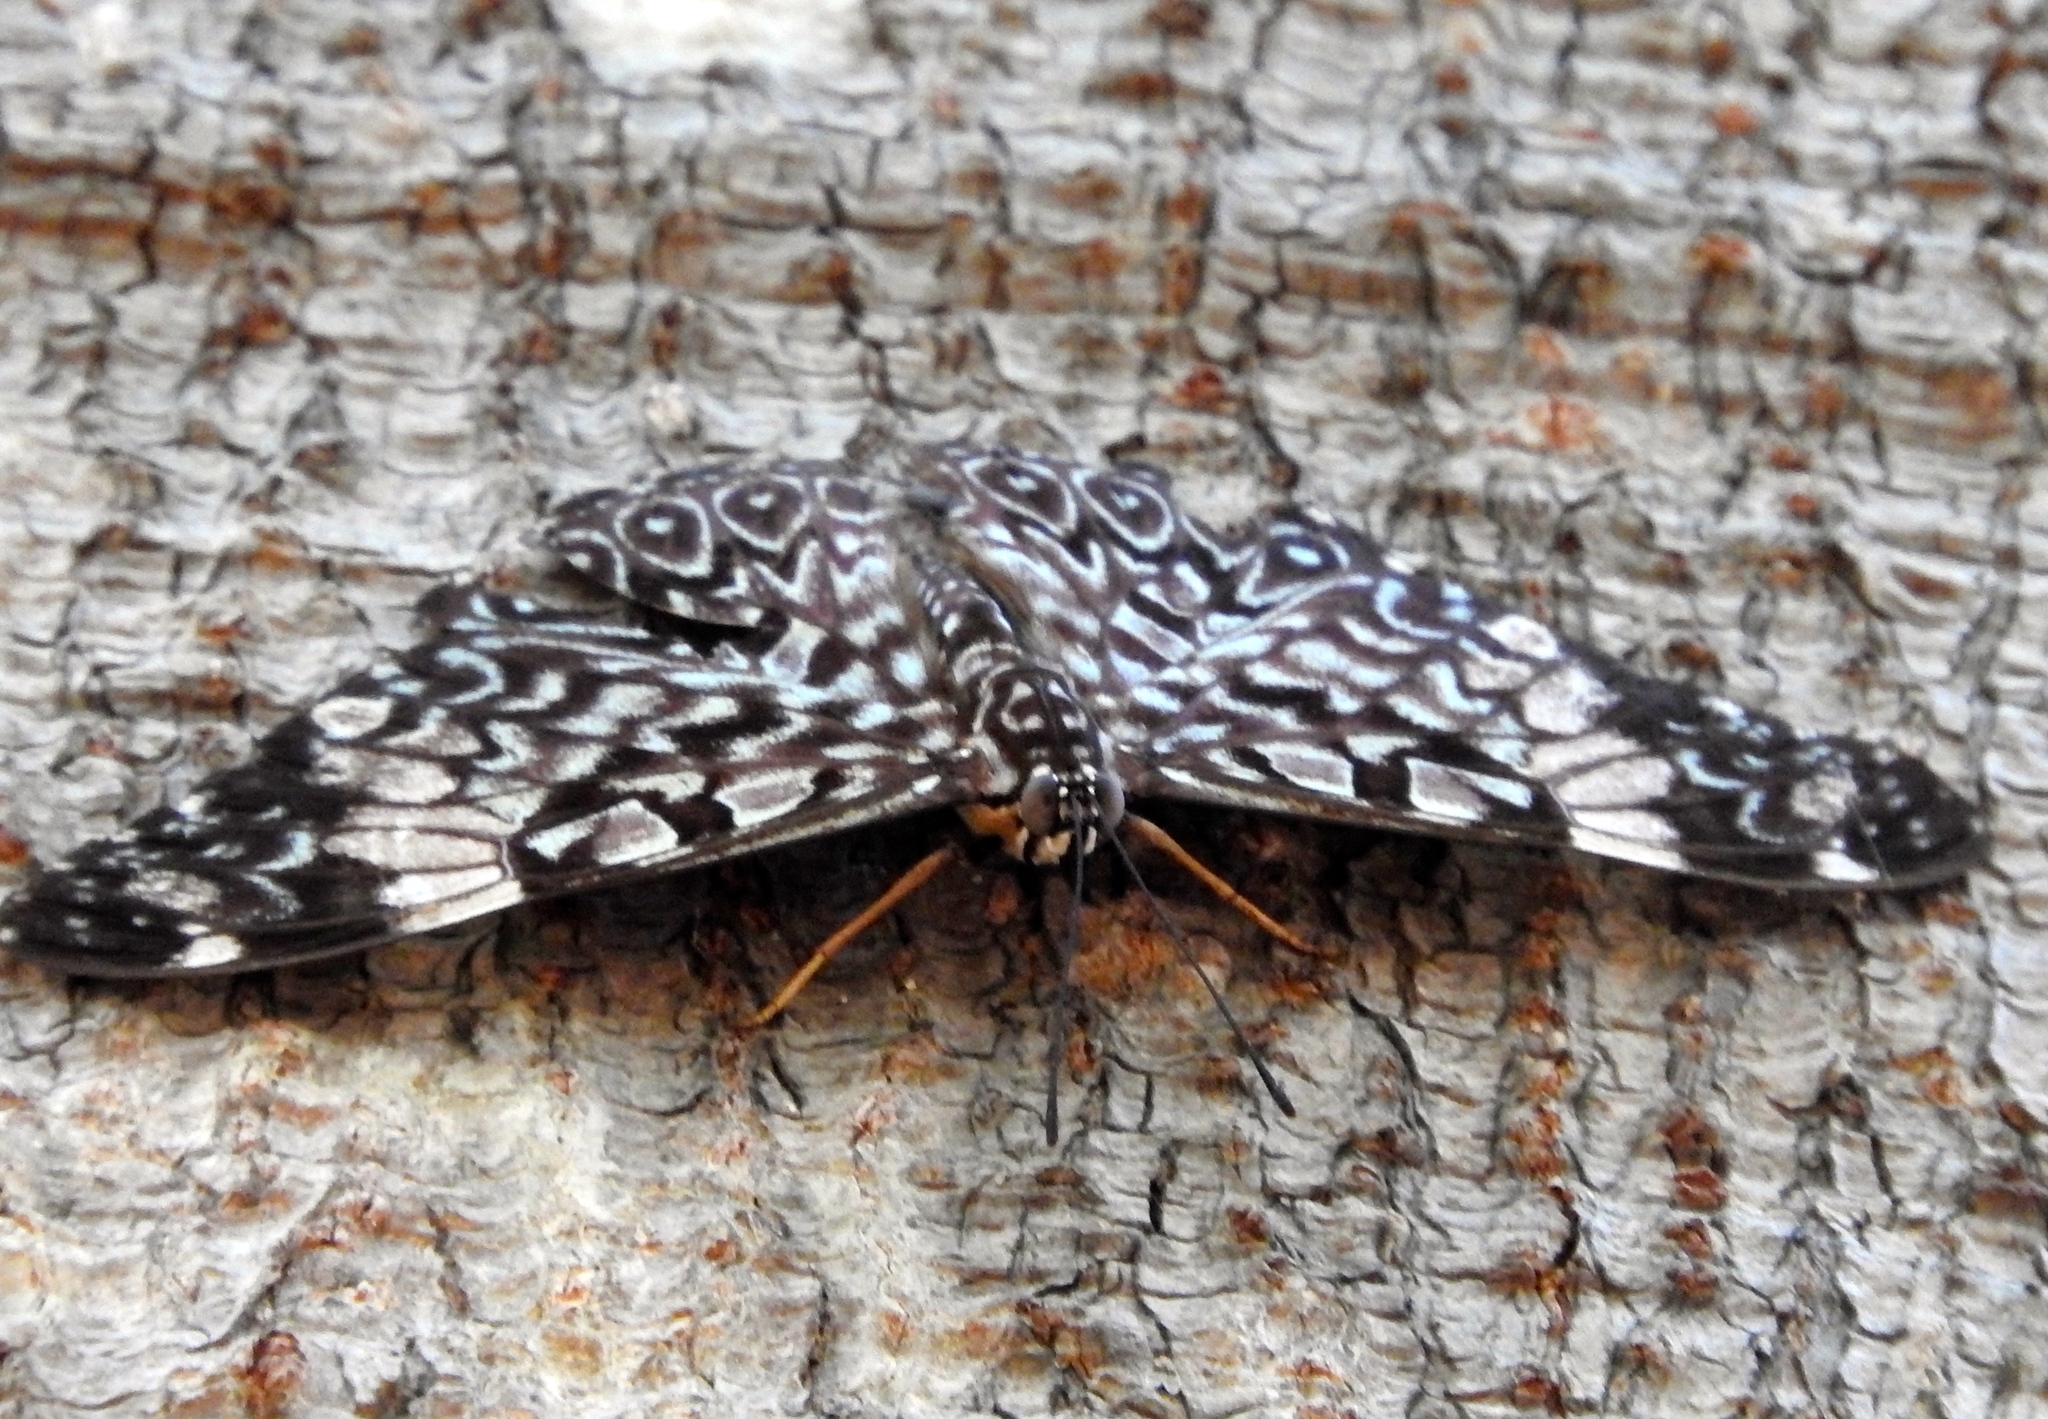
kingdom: Animalia
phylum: Arthropoda
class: Insecta
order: Lepidoptera
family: Nymphalidae
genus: Hamadryas
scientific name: Hamadryas amphinome
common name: Red cracker
